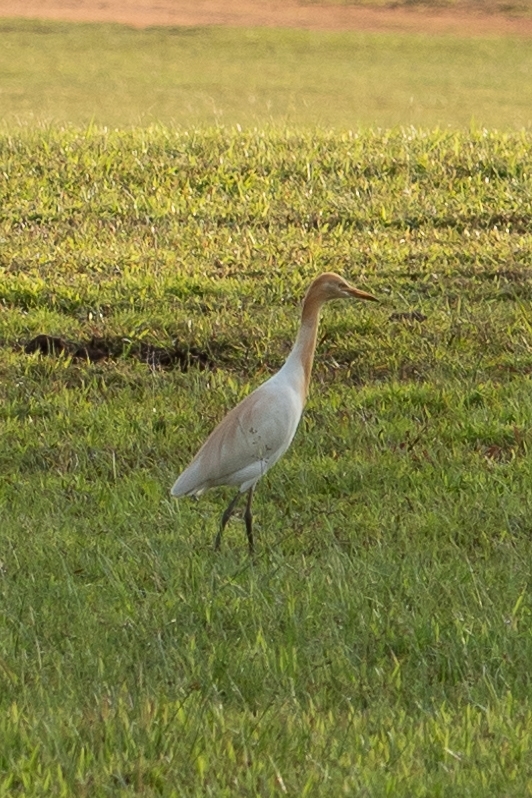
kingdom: Animalia
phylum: Chordata
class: Aves
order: Pelecaniformes
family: Ardeidae
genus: Bubulcus
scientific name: Bubulcus coromandus
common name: Eastern cattle egret
